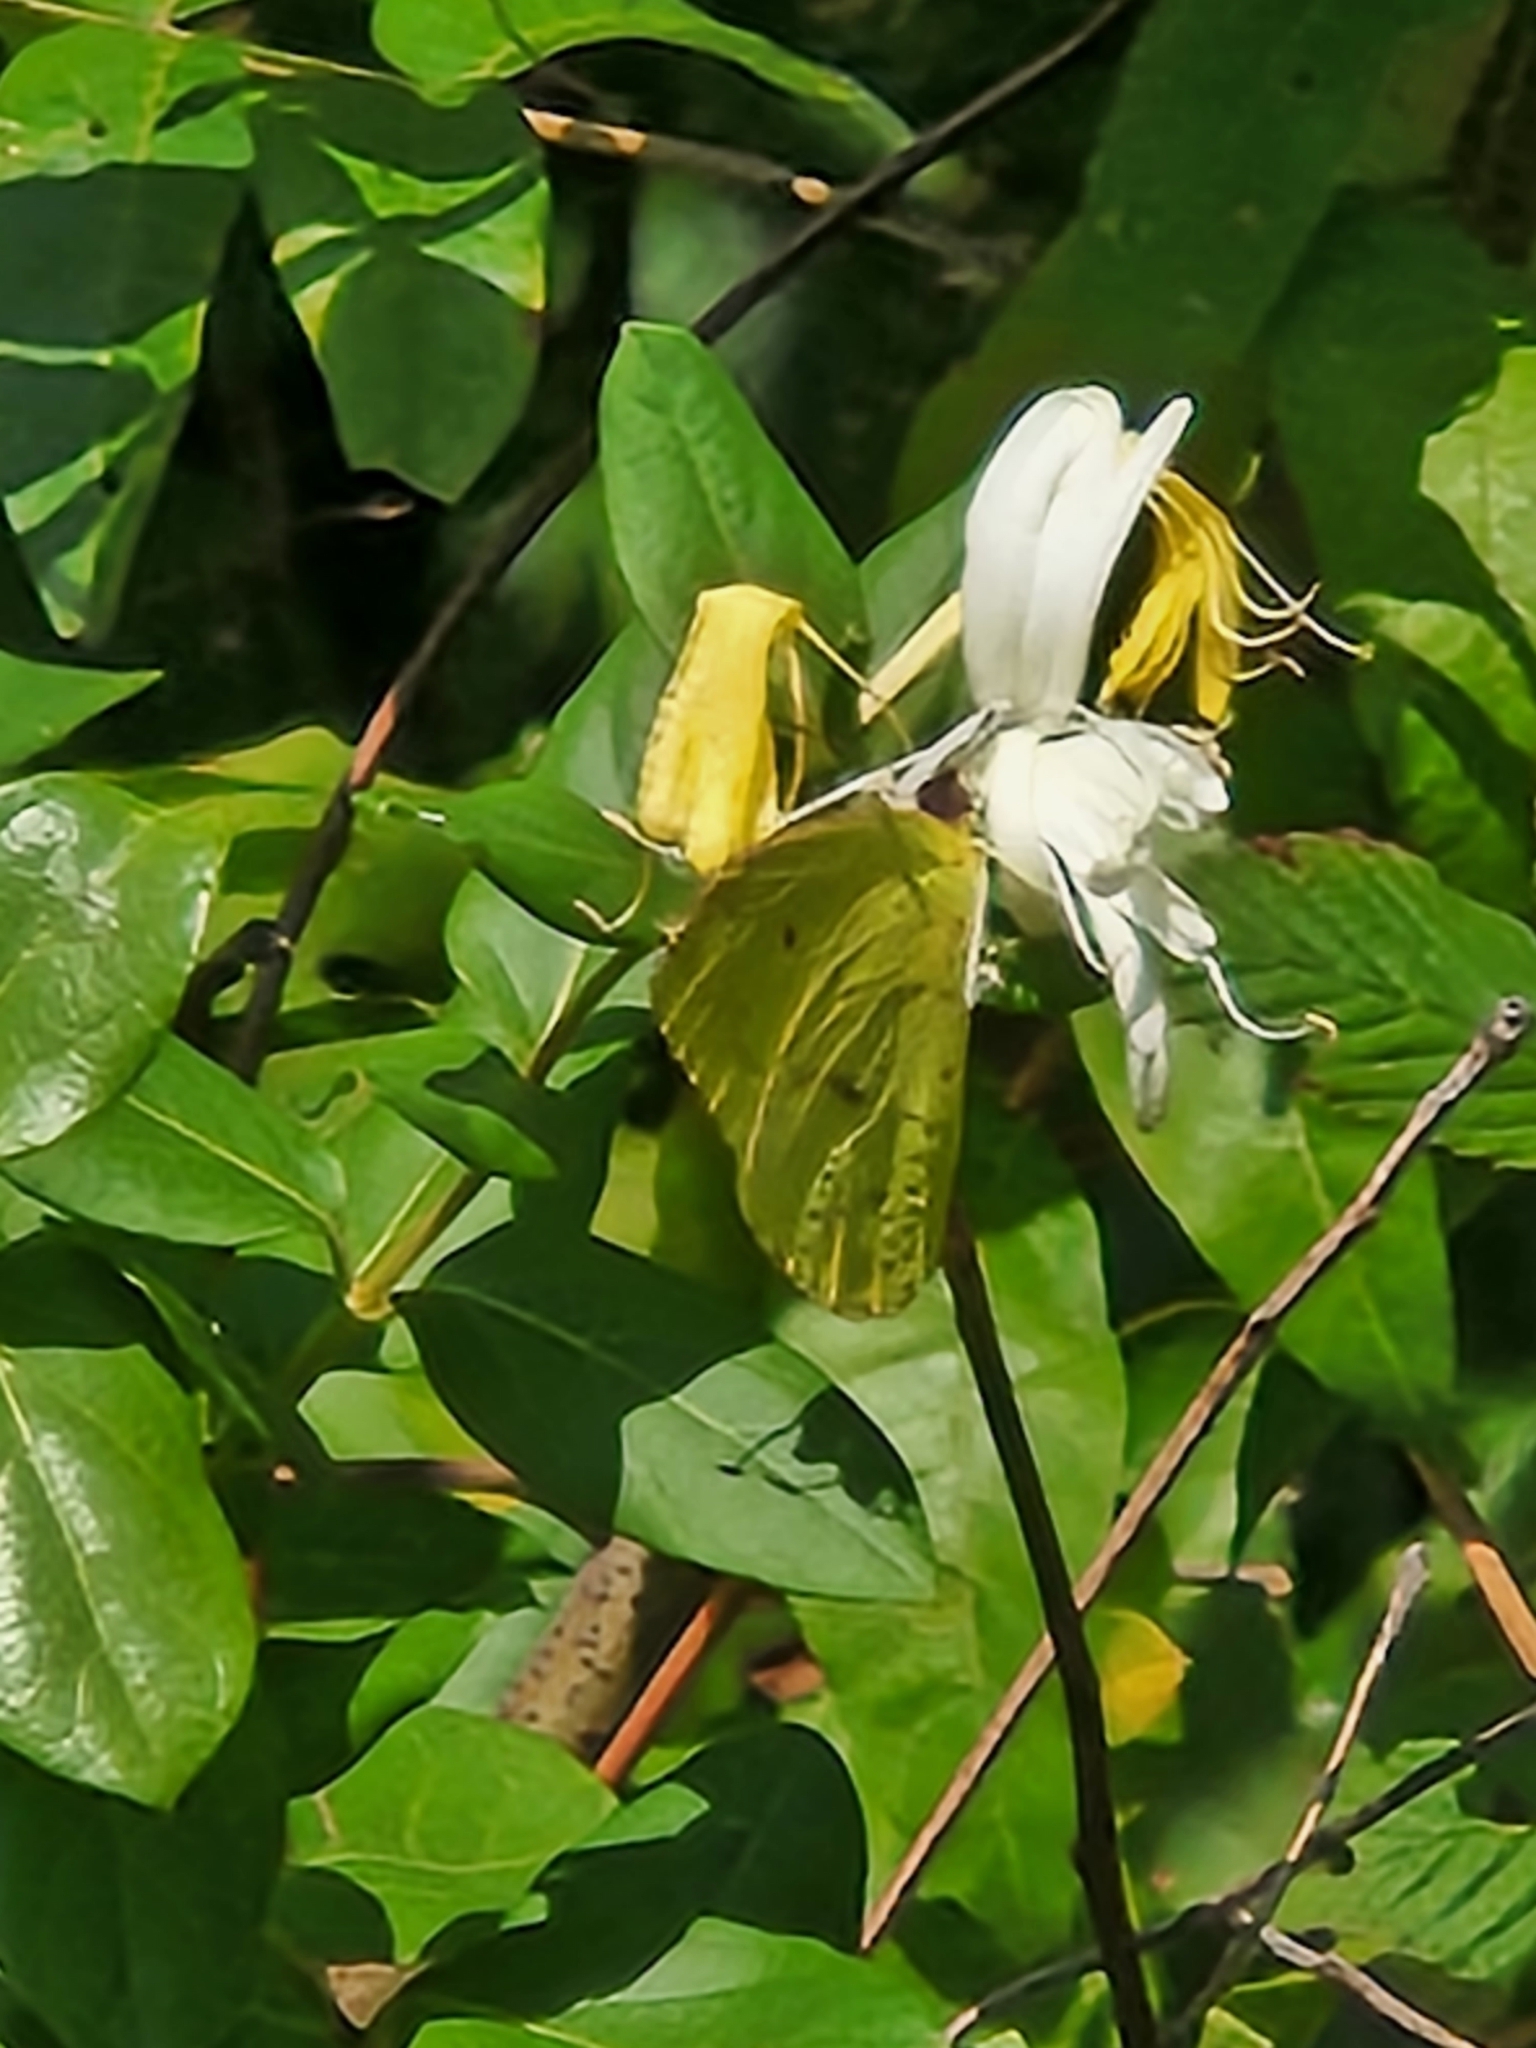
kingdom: Animalia
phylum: Arthropoda
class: Insecta
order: Lepidoptera
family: Pieridae
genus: Phoebis
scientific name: Phoebis sennae
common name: Cloudless sulphur
